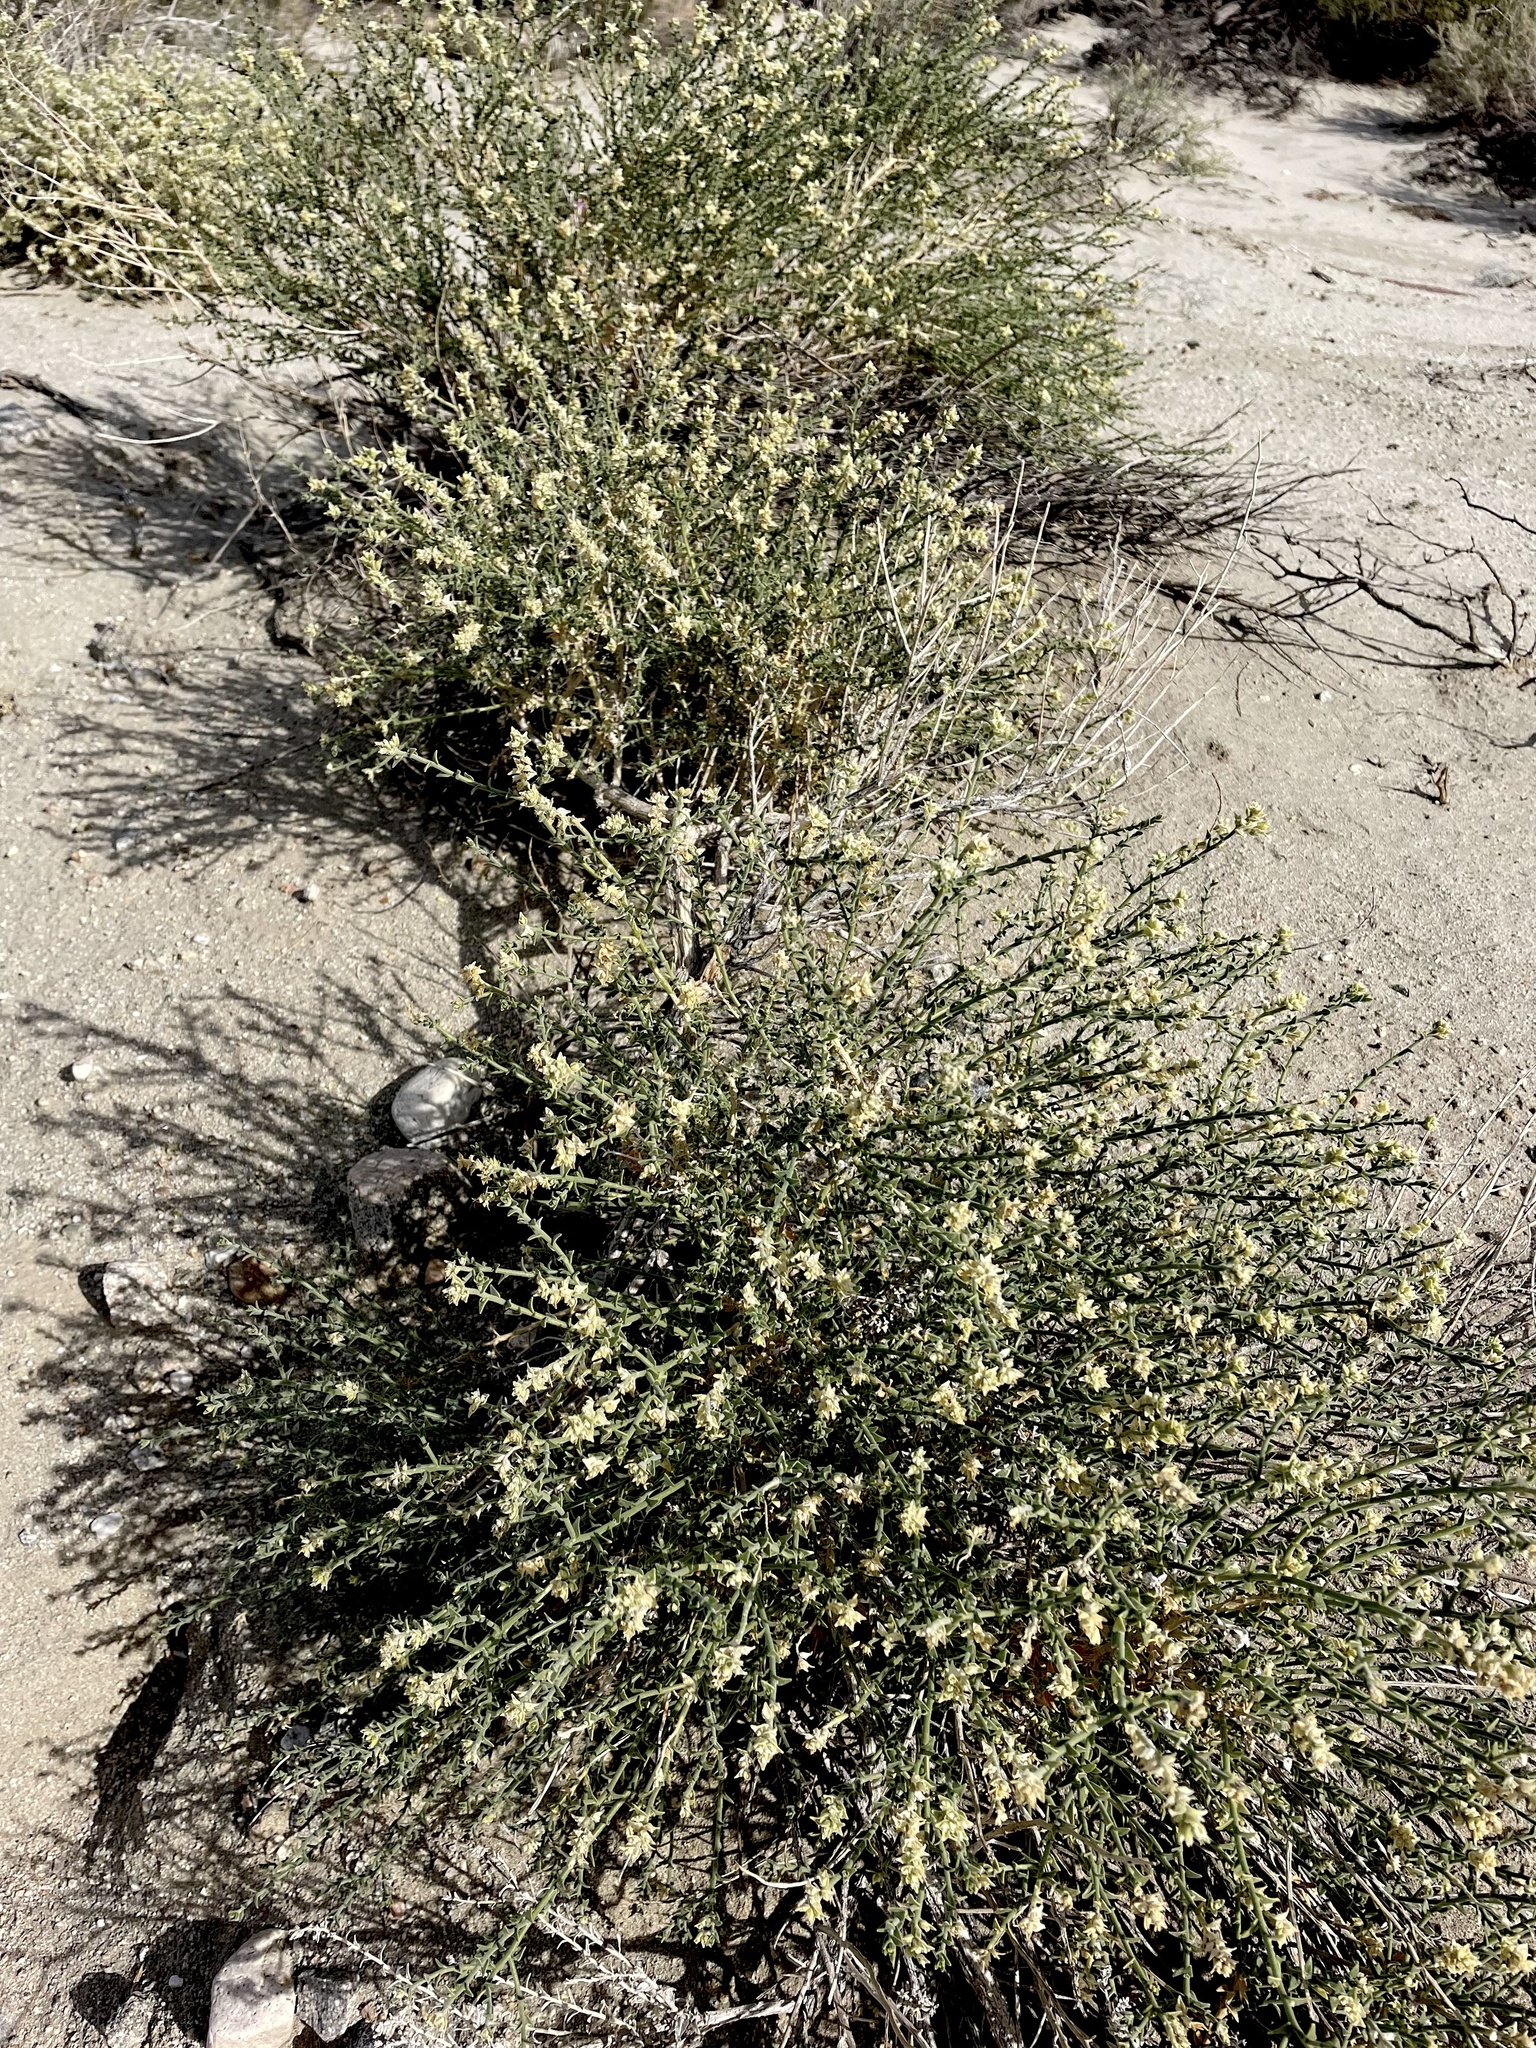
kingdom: Plantae
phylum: Tracheophyta
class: Magnoliopsida
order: Cornales
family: Loasaceae
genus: Petalonyx
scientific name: Petalonyx thurberi
